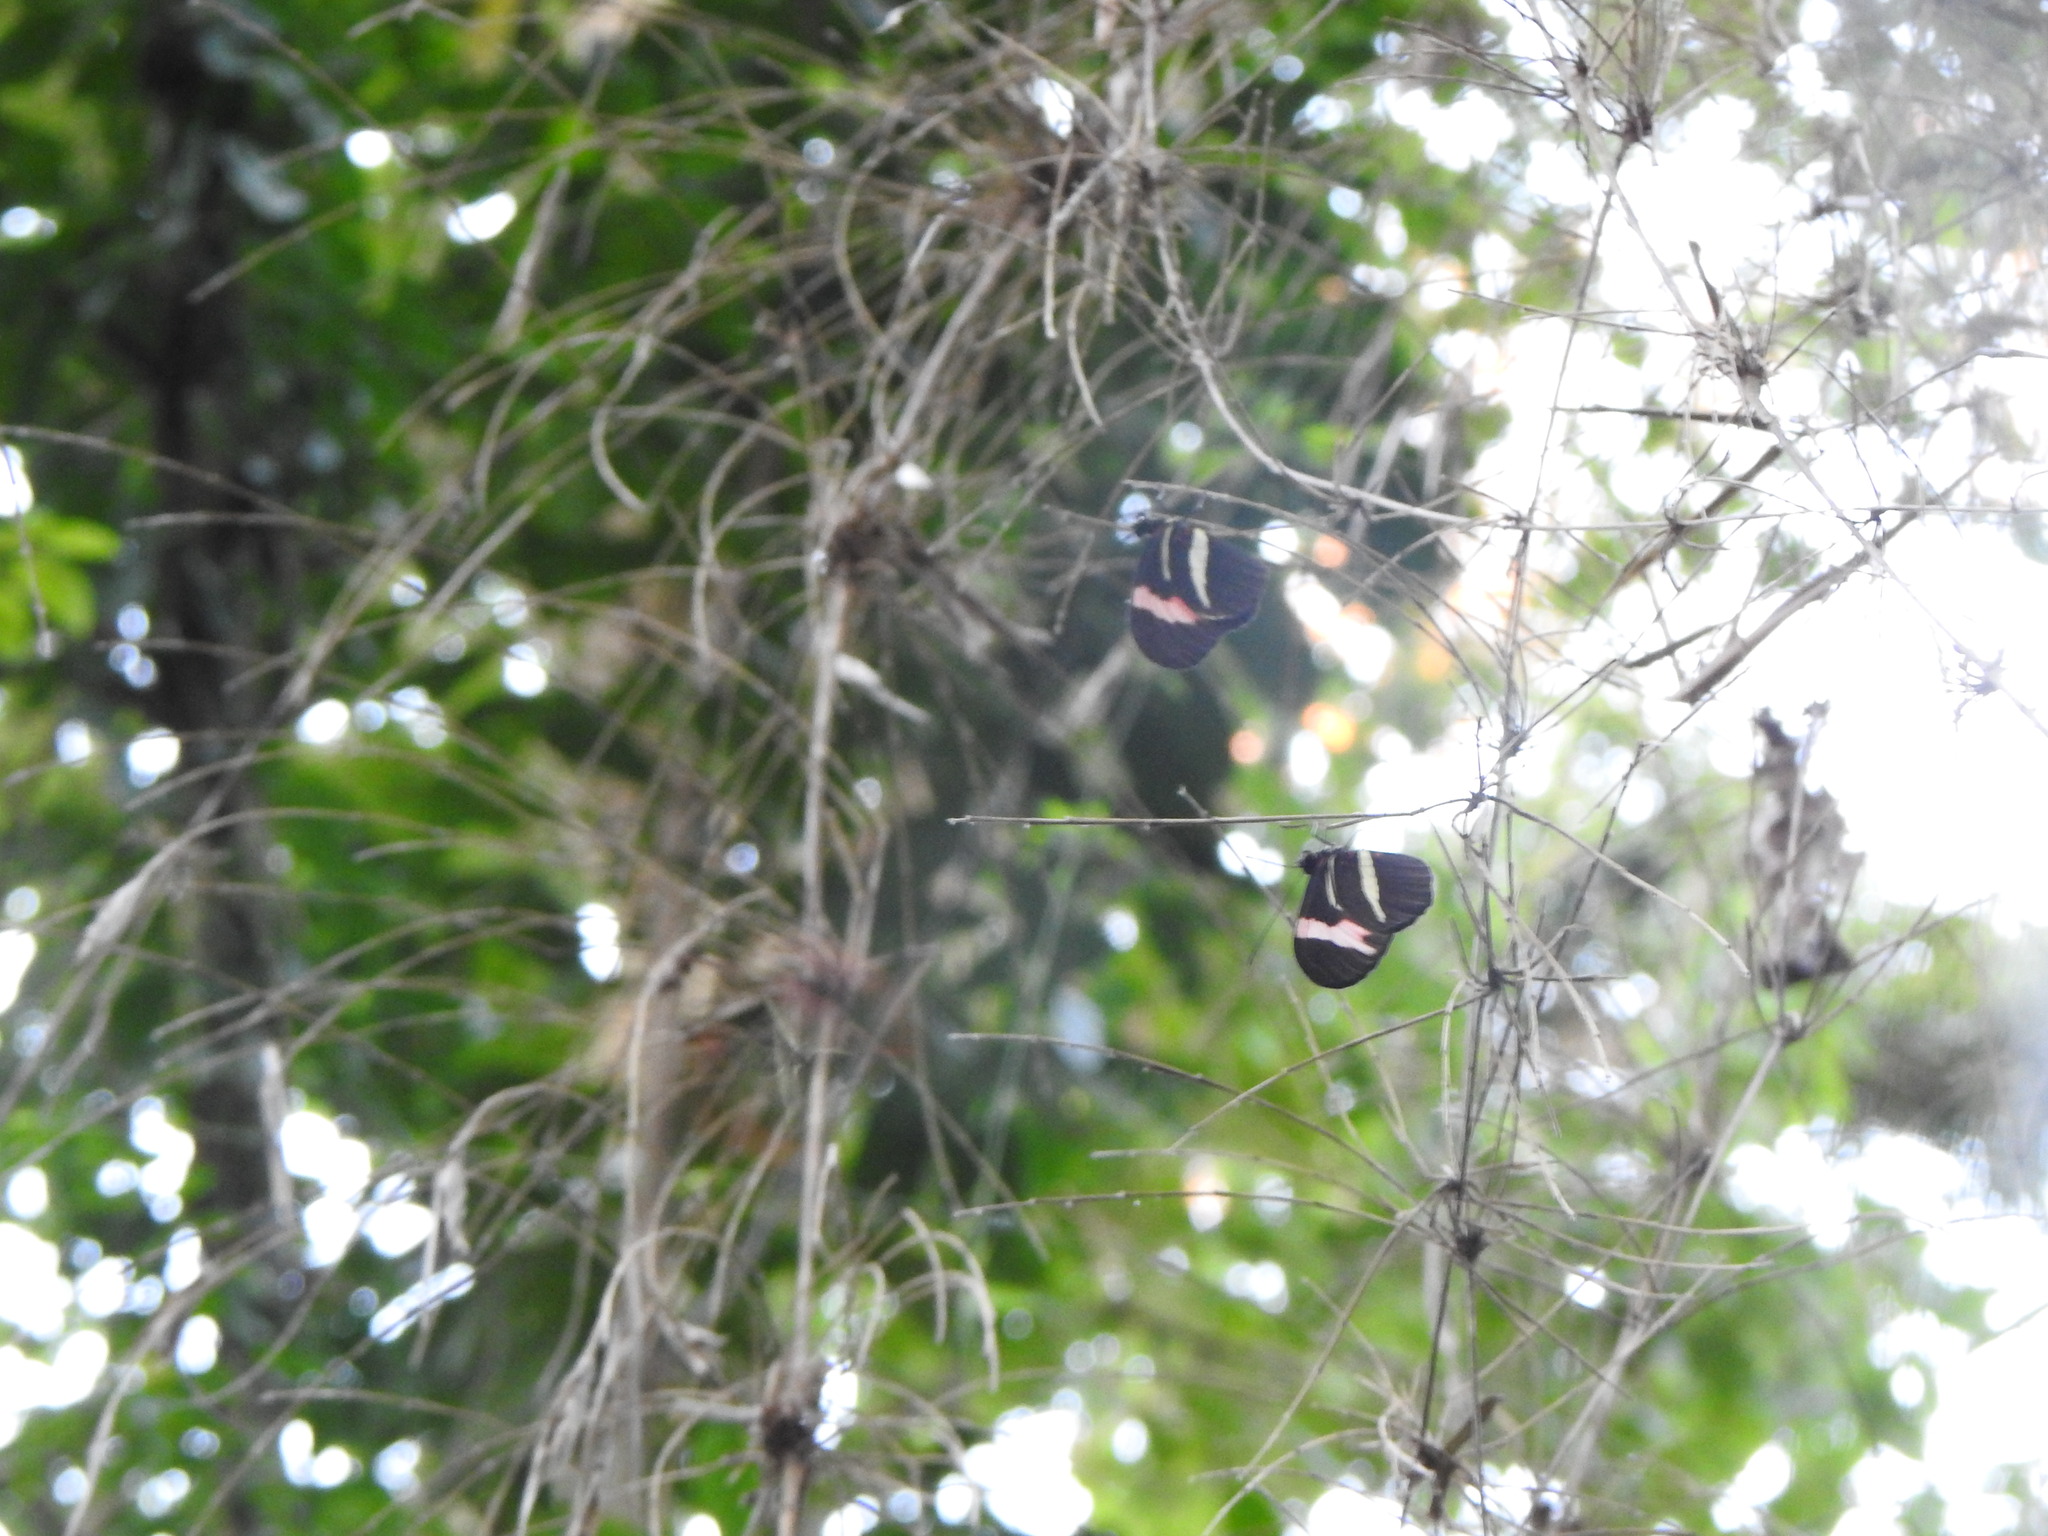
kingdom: Animalia
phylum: Arthropoda
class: Insecta
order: Lepidoptera
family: Nymphalidae
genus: Heliconius
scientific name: Heliconius erato
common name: Common patch longwing
